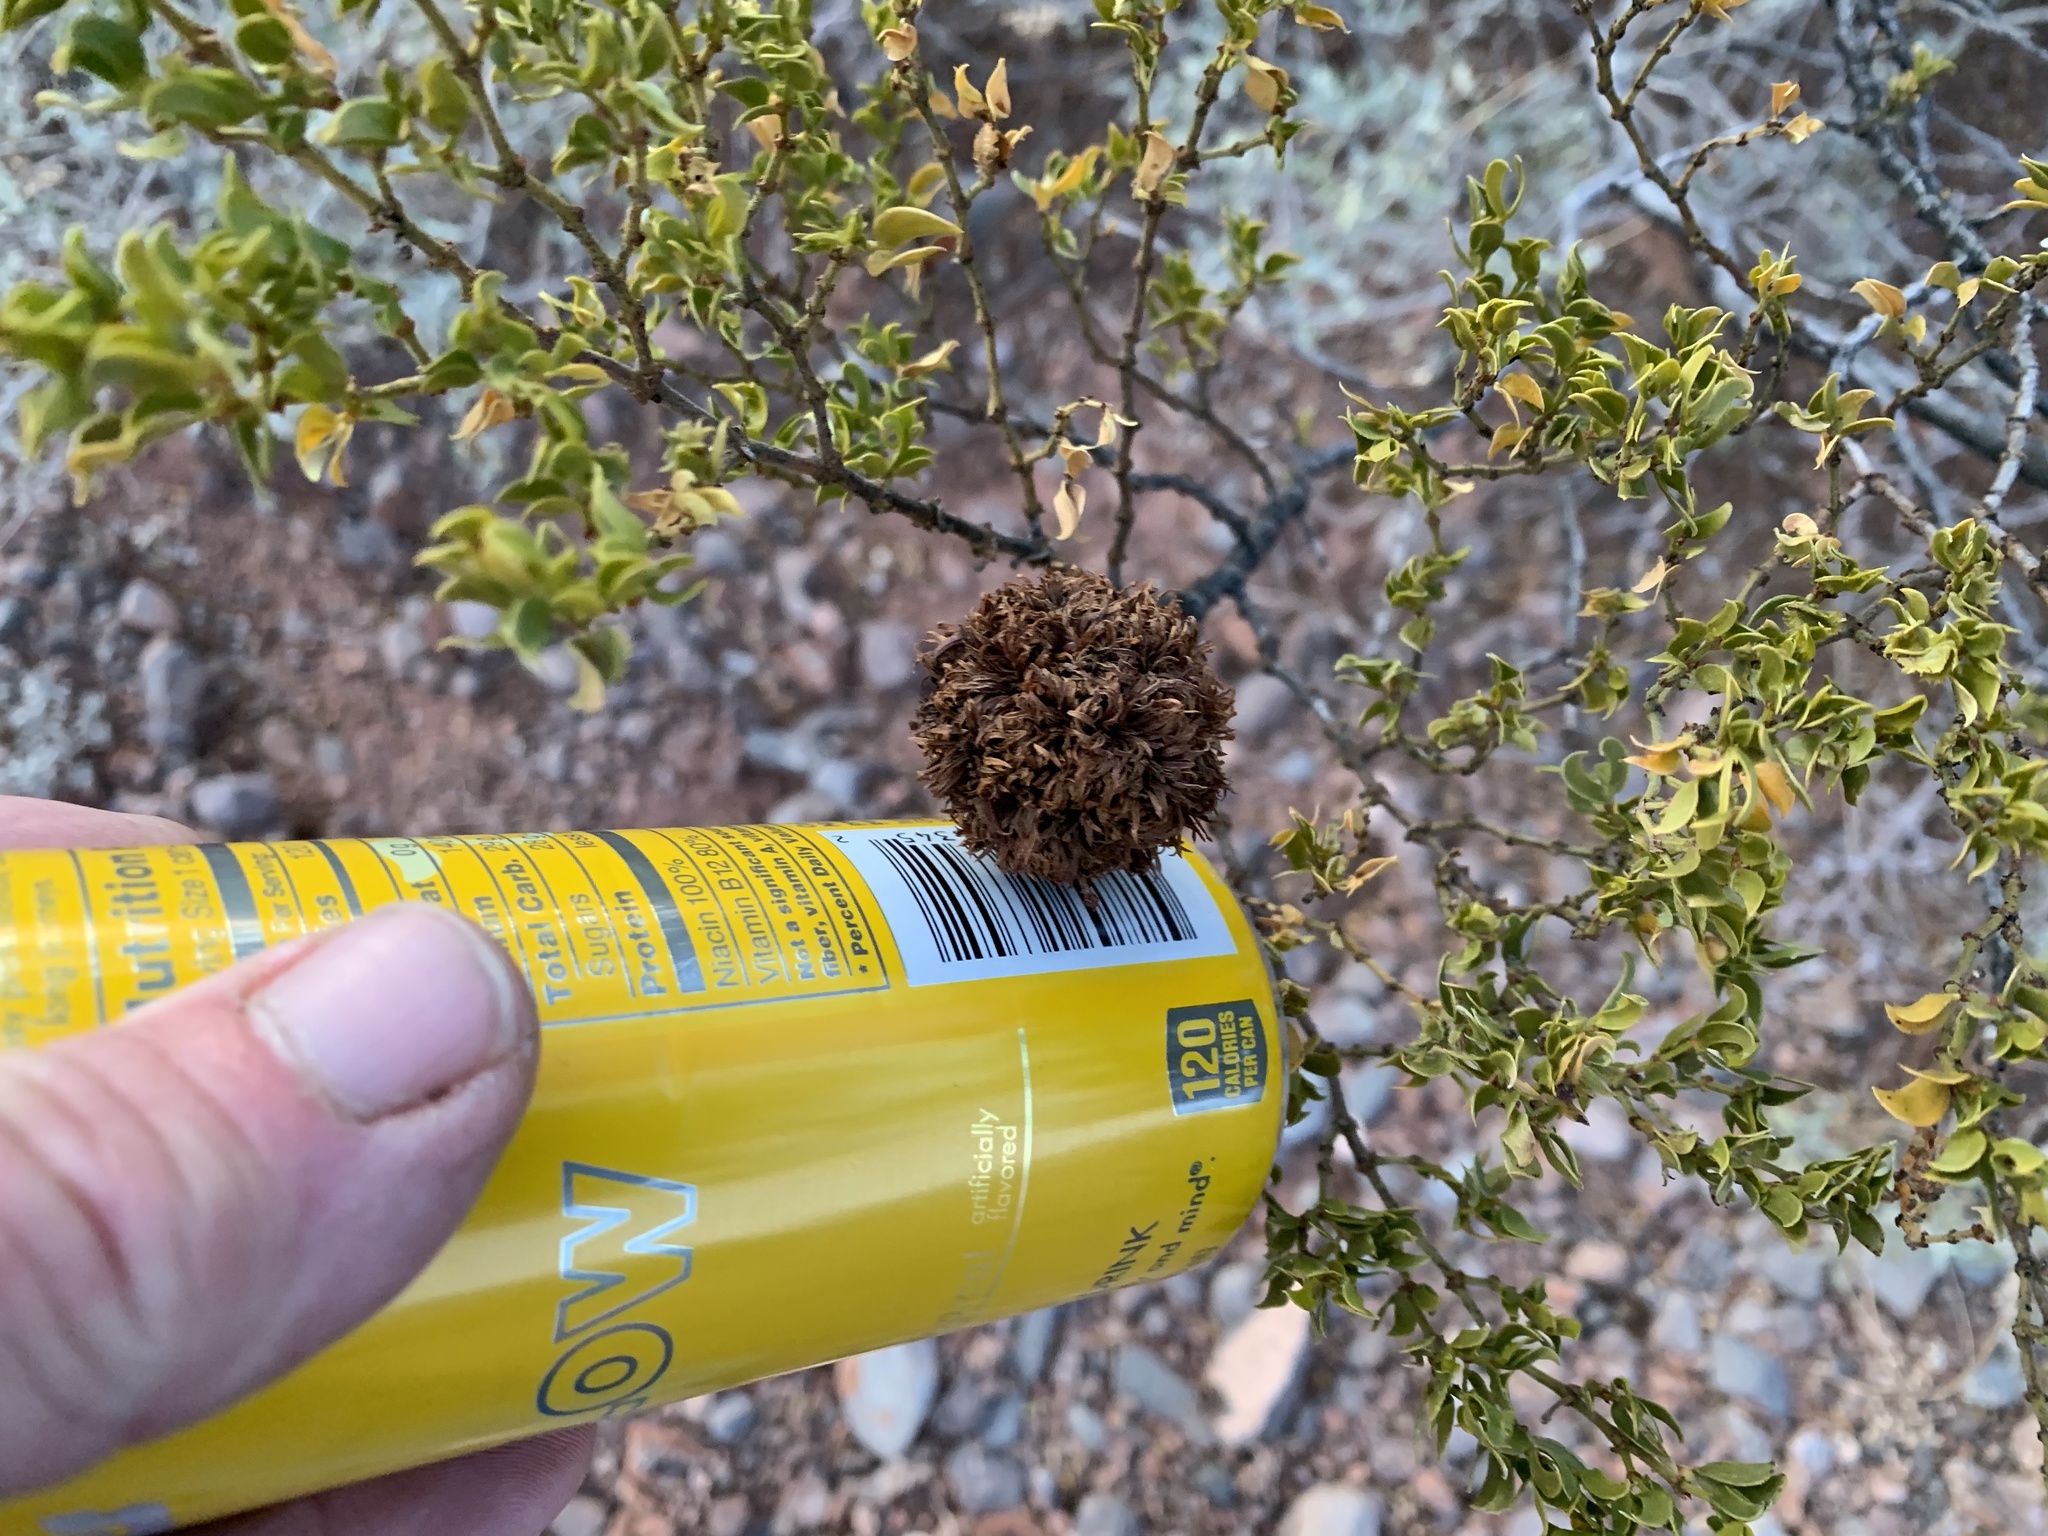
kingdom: Animalia
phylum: Arthropoda
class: Insecta
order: Diptera
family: Cecidomyiidae
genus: Asphondylia
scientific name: Asphondylia auripila
